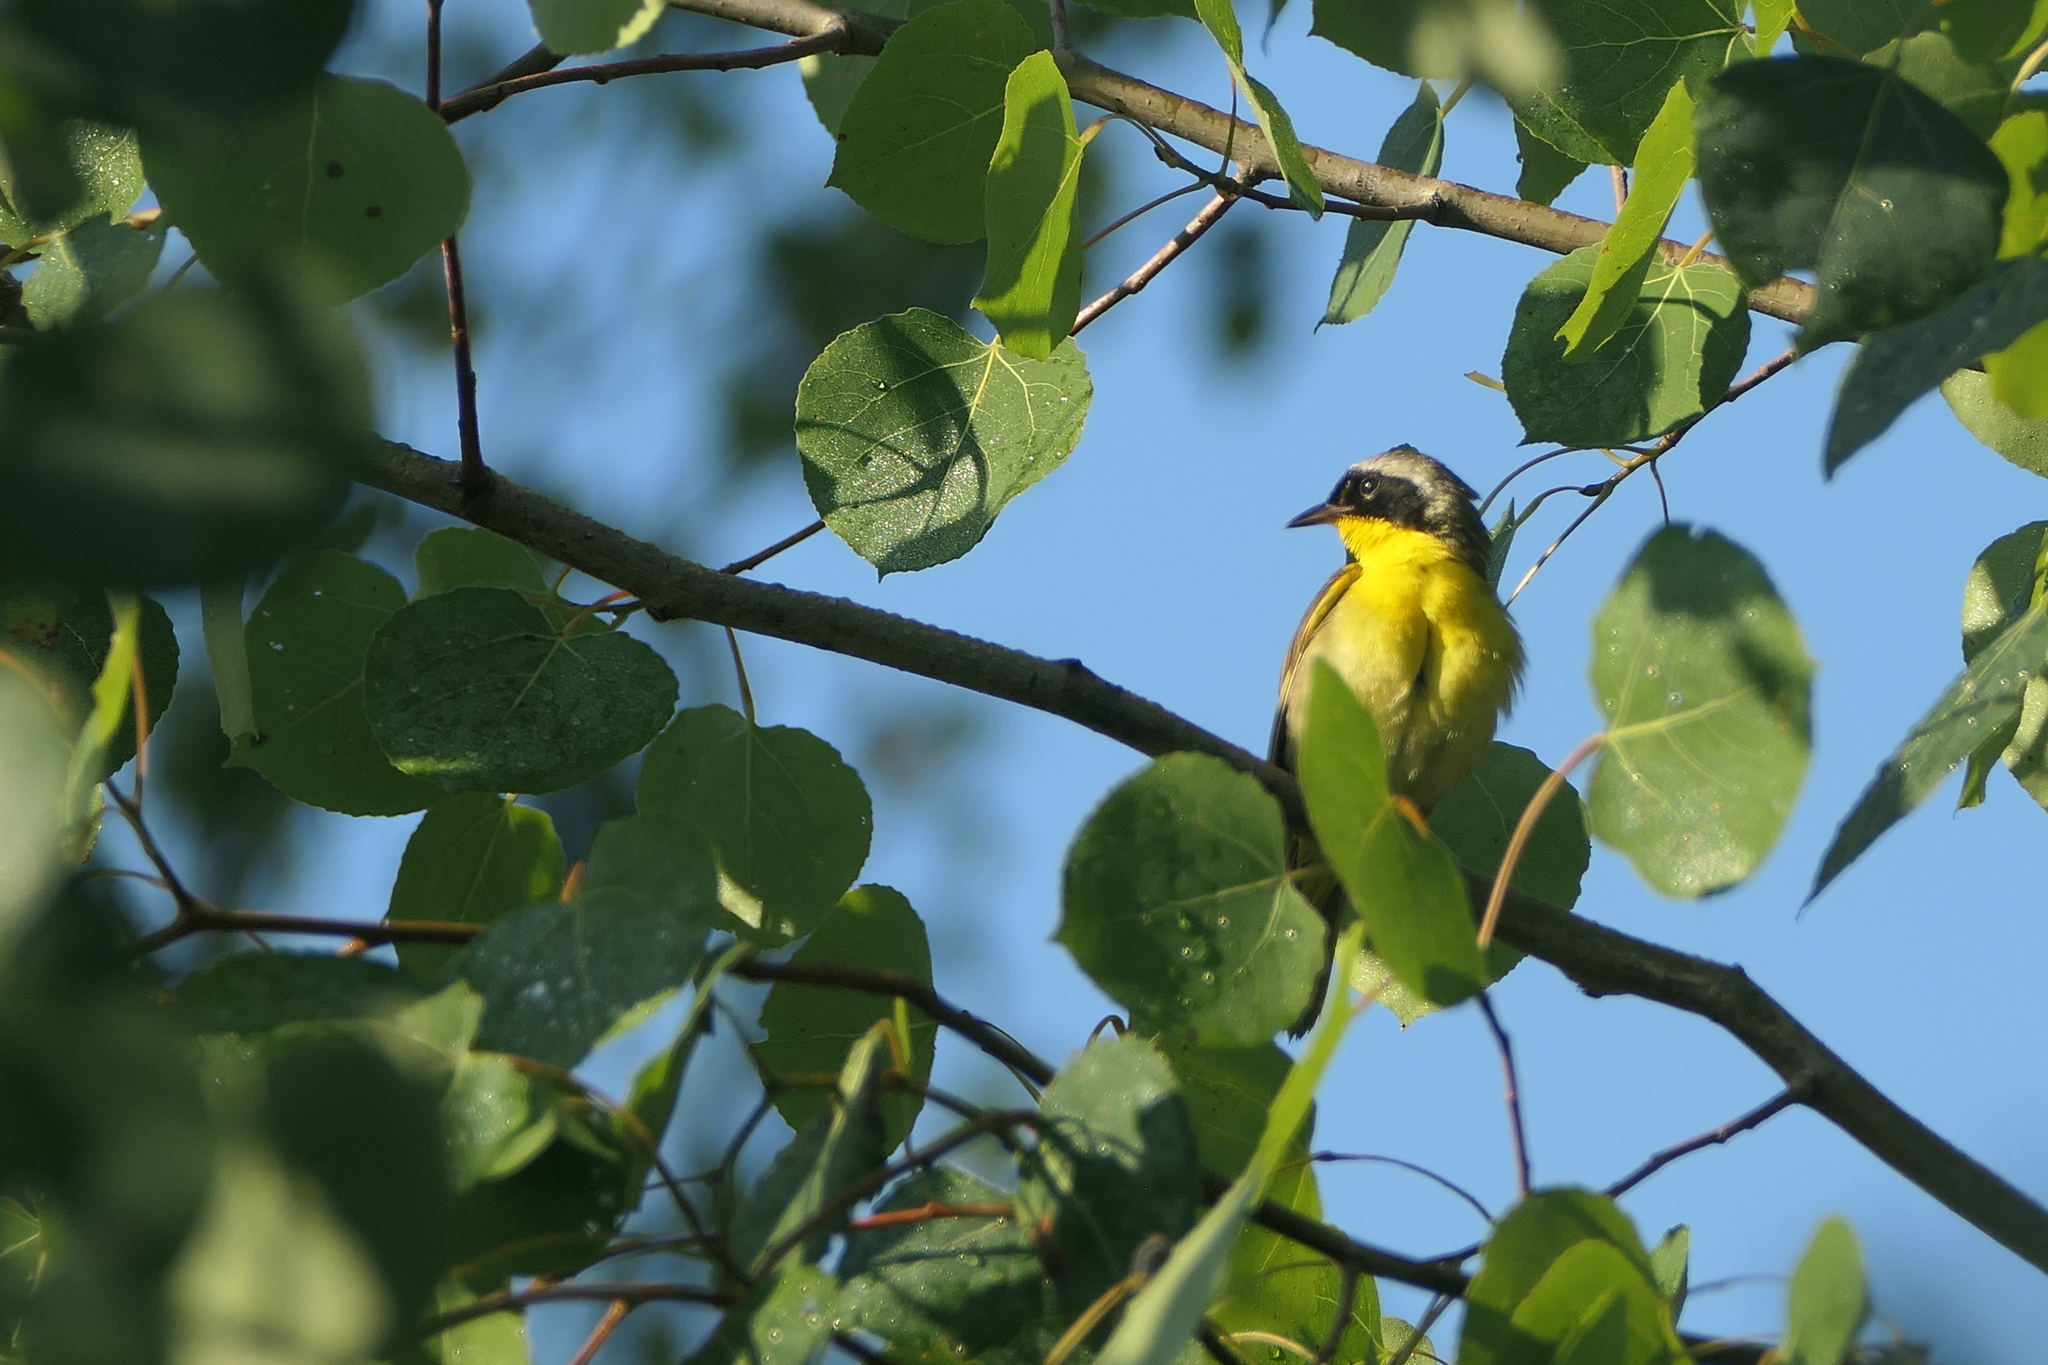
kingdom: Animalia
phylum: Chordata
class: Aves
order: Passeriformes
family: Parulidae
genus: Geothlypis
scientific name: Geothlypis trichas
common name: Common yellowthroat
